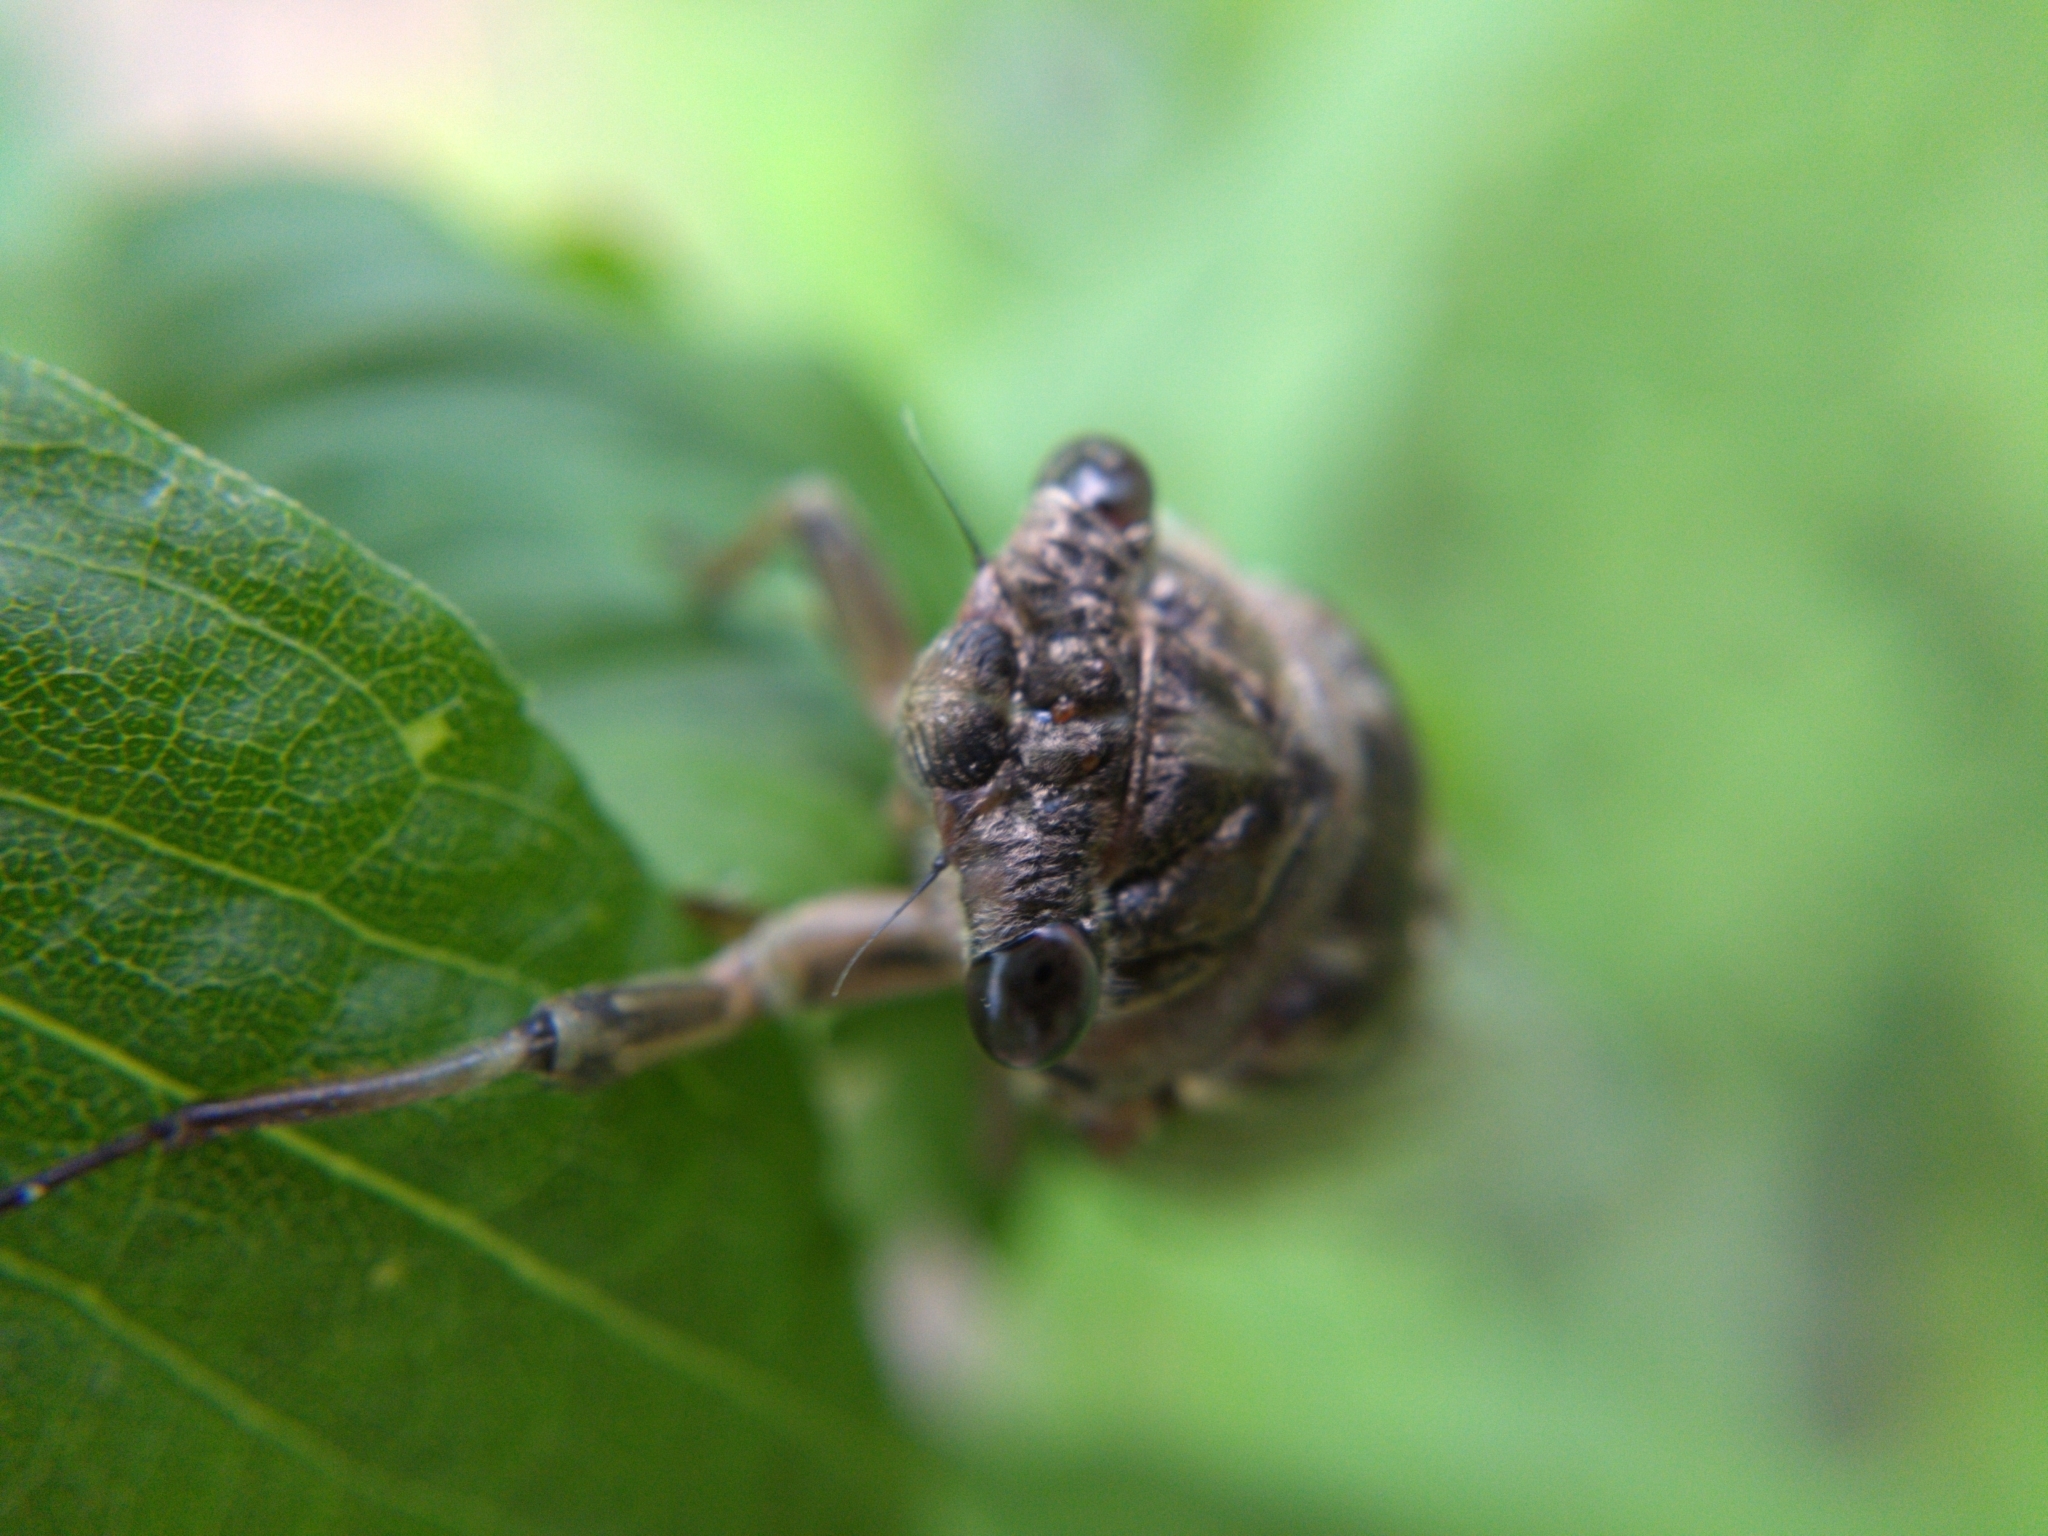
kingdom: Animalia
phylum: Arthropoda
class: Insecta
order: Hemiptera
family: Cicadidae
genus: Neotibicen
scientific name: Neotibicen canicularis
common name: God-day cicada
